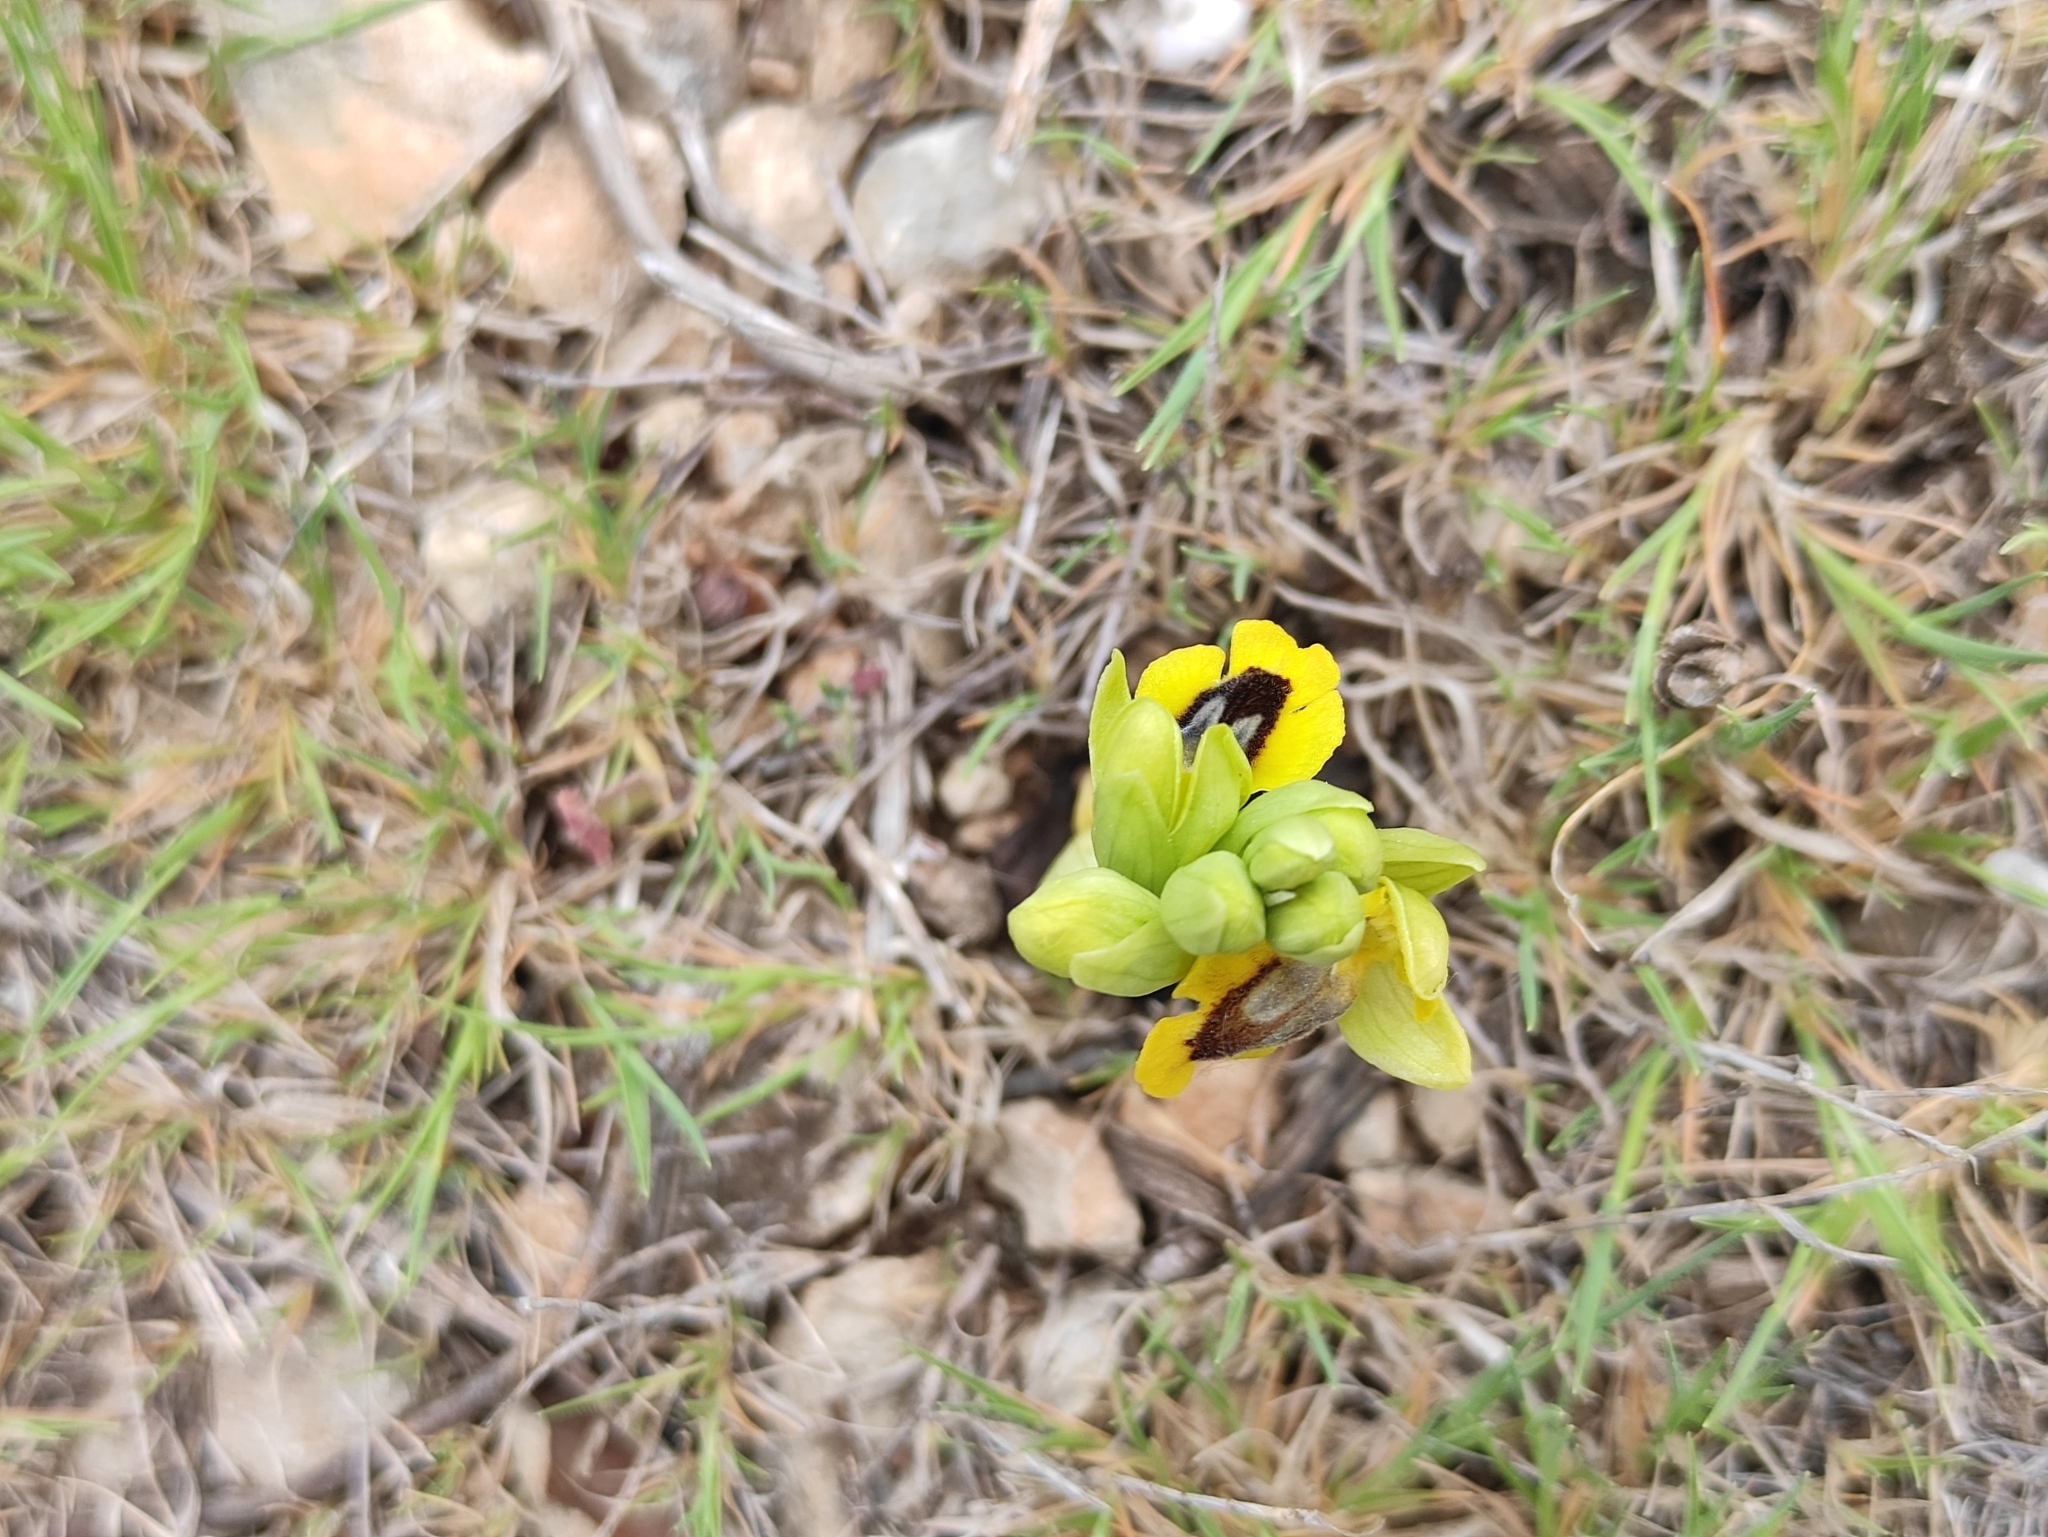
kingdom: Plantae
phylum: Tracheophyta
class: Liliopsida
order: Asparagales
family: Orchidaceae
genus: Ophrys
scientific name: Ophrys lutea
